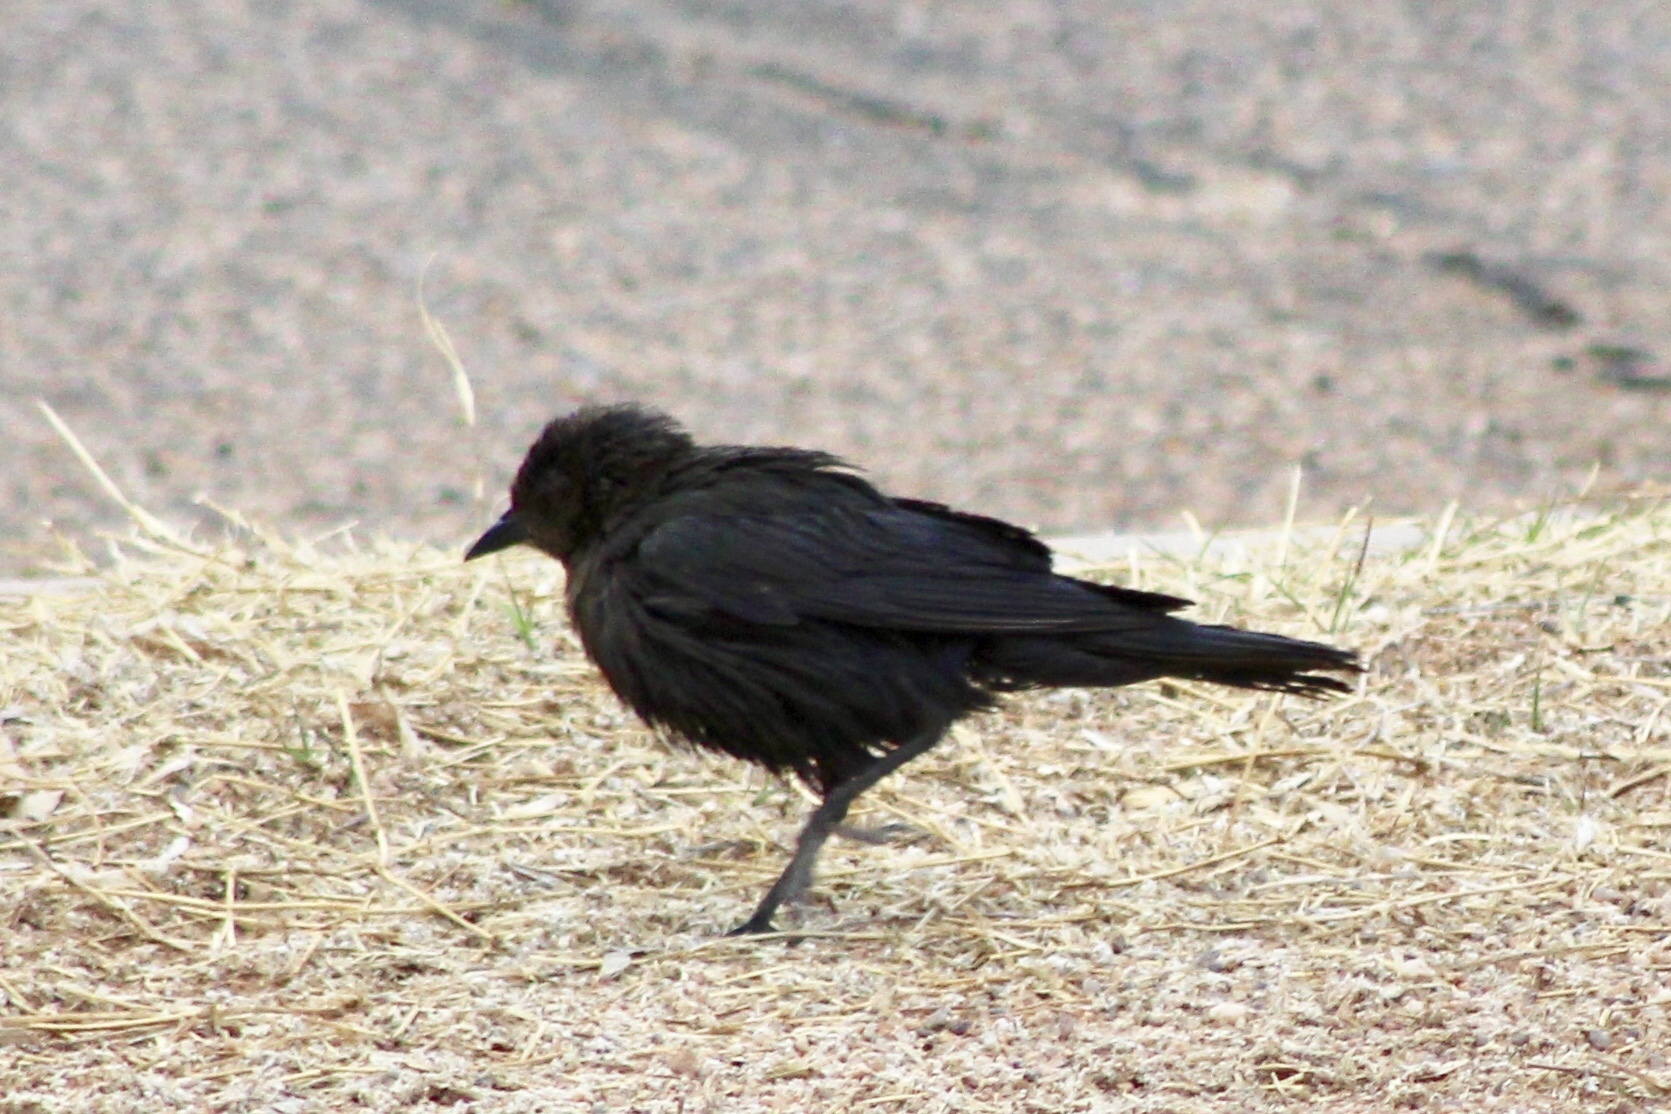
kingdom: Animalia
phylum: Chordata
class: Aves
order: Passeriformes
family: Icteridae
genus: Euphagus
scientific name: Euphagus cyanocephalus
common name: Brewer's blackbird
